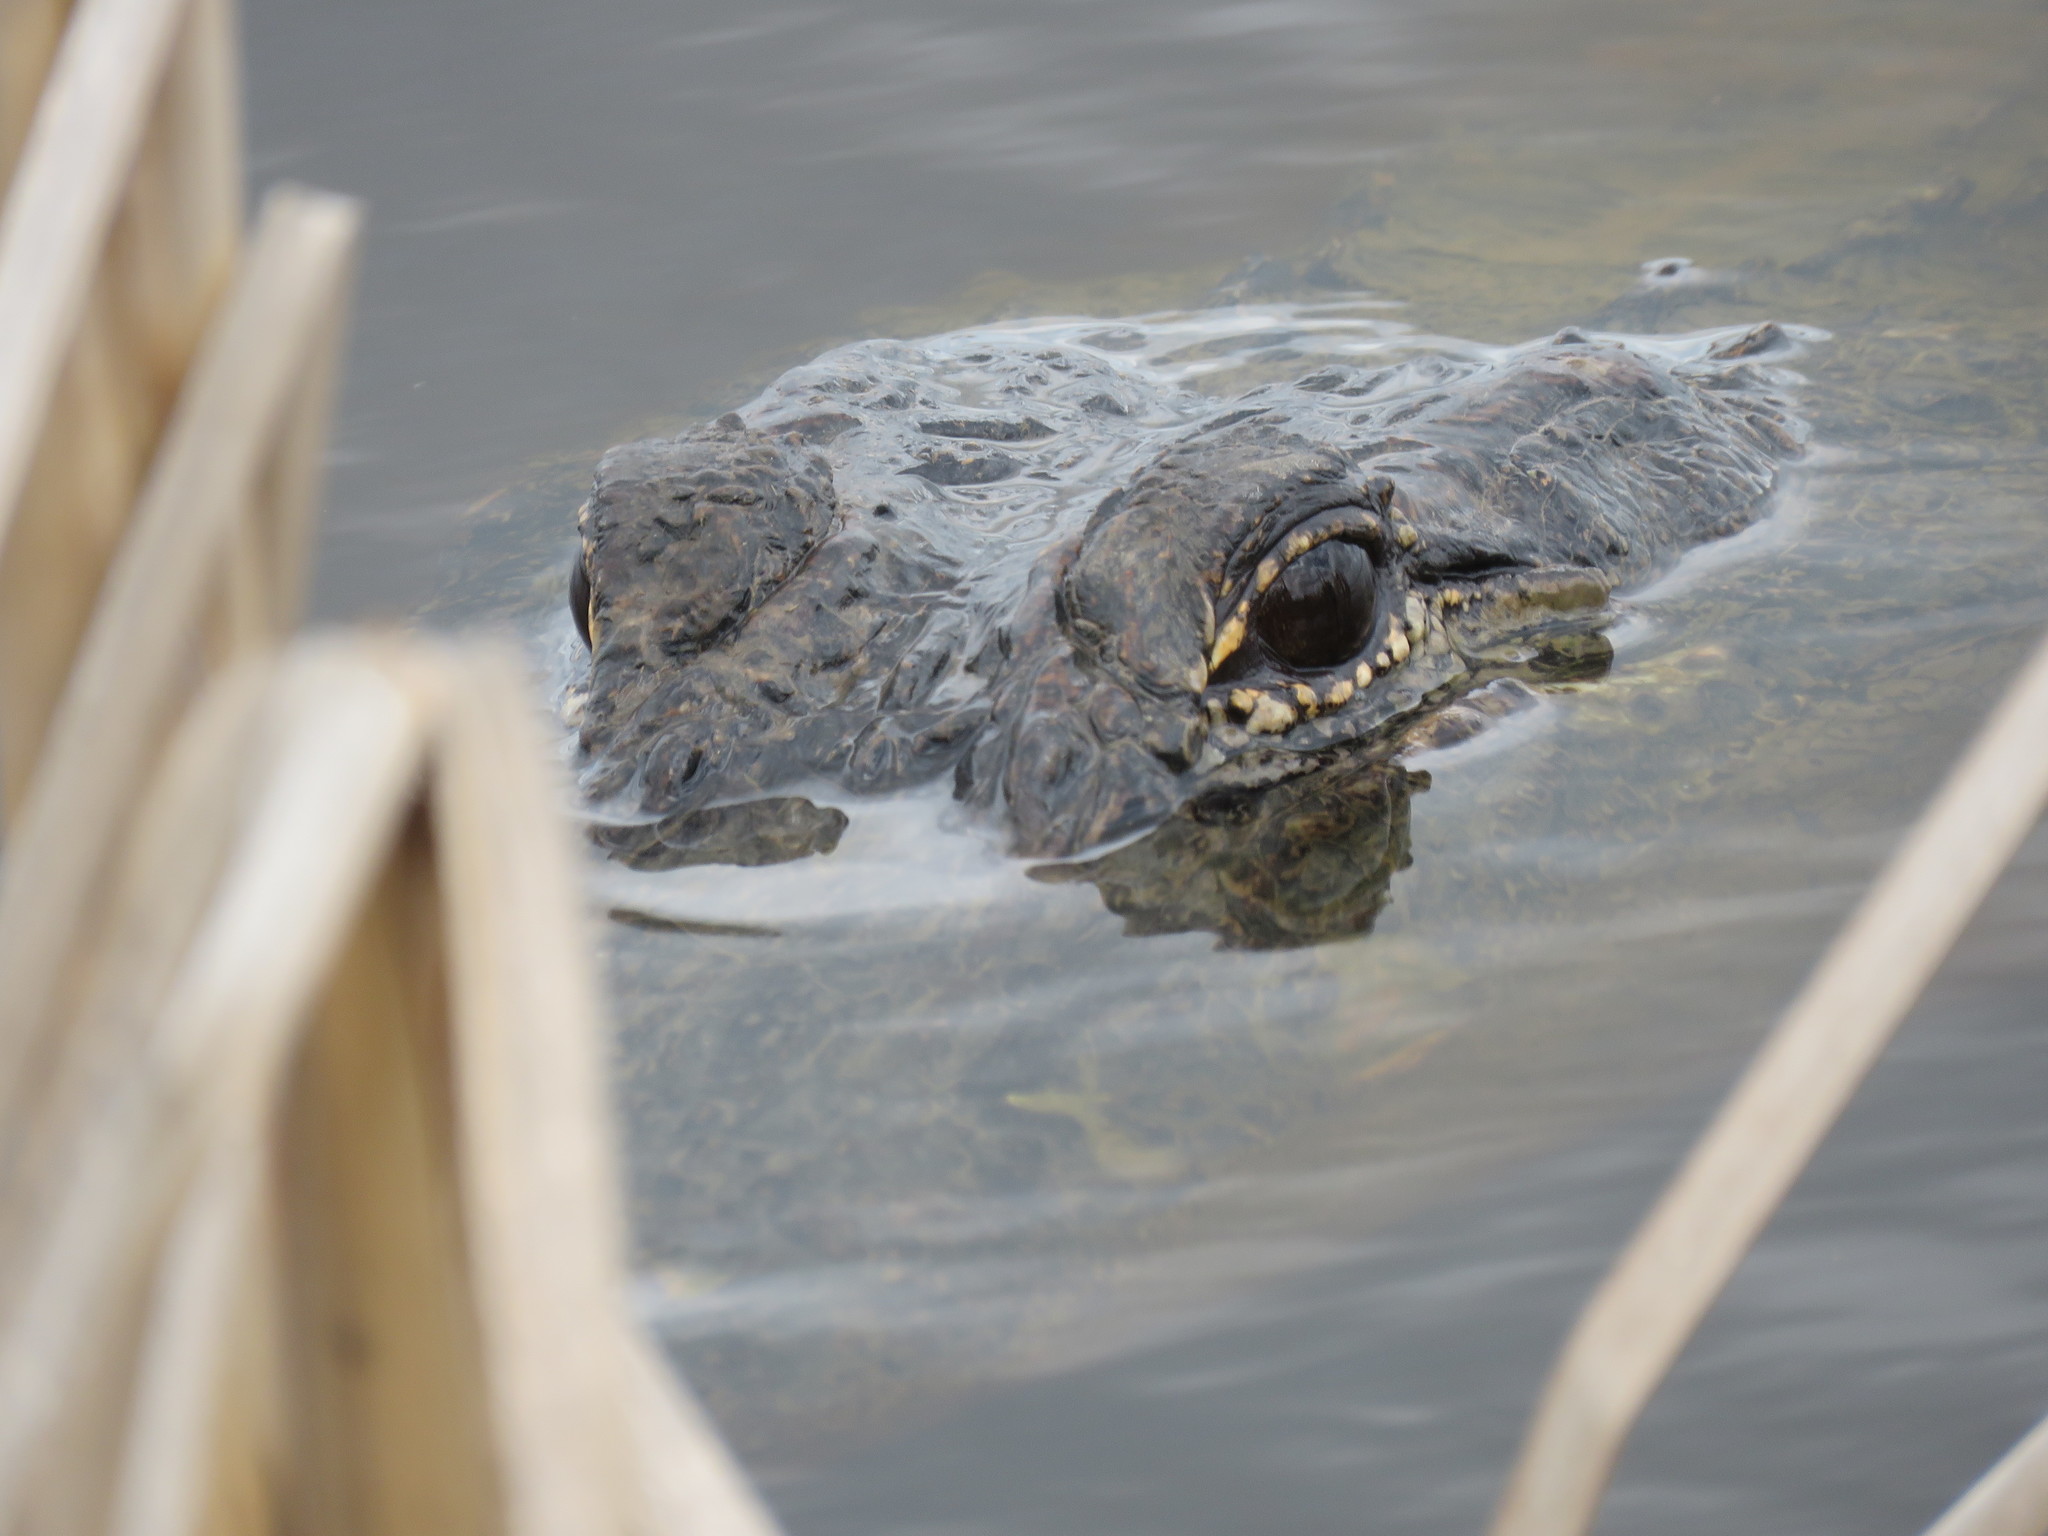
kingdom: Animalia
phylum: Chordata
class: Crocodylia
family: Alligatoridae
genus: Alligator
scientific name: Alligator mississippiensis
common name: American alligator
